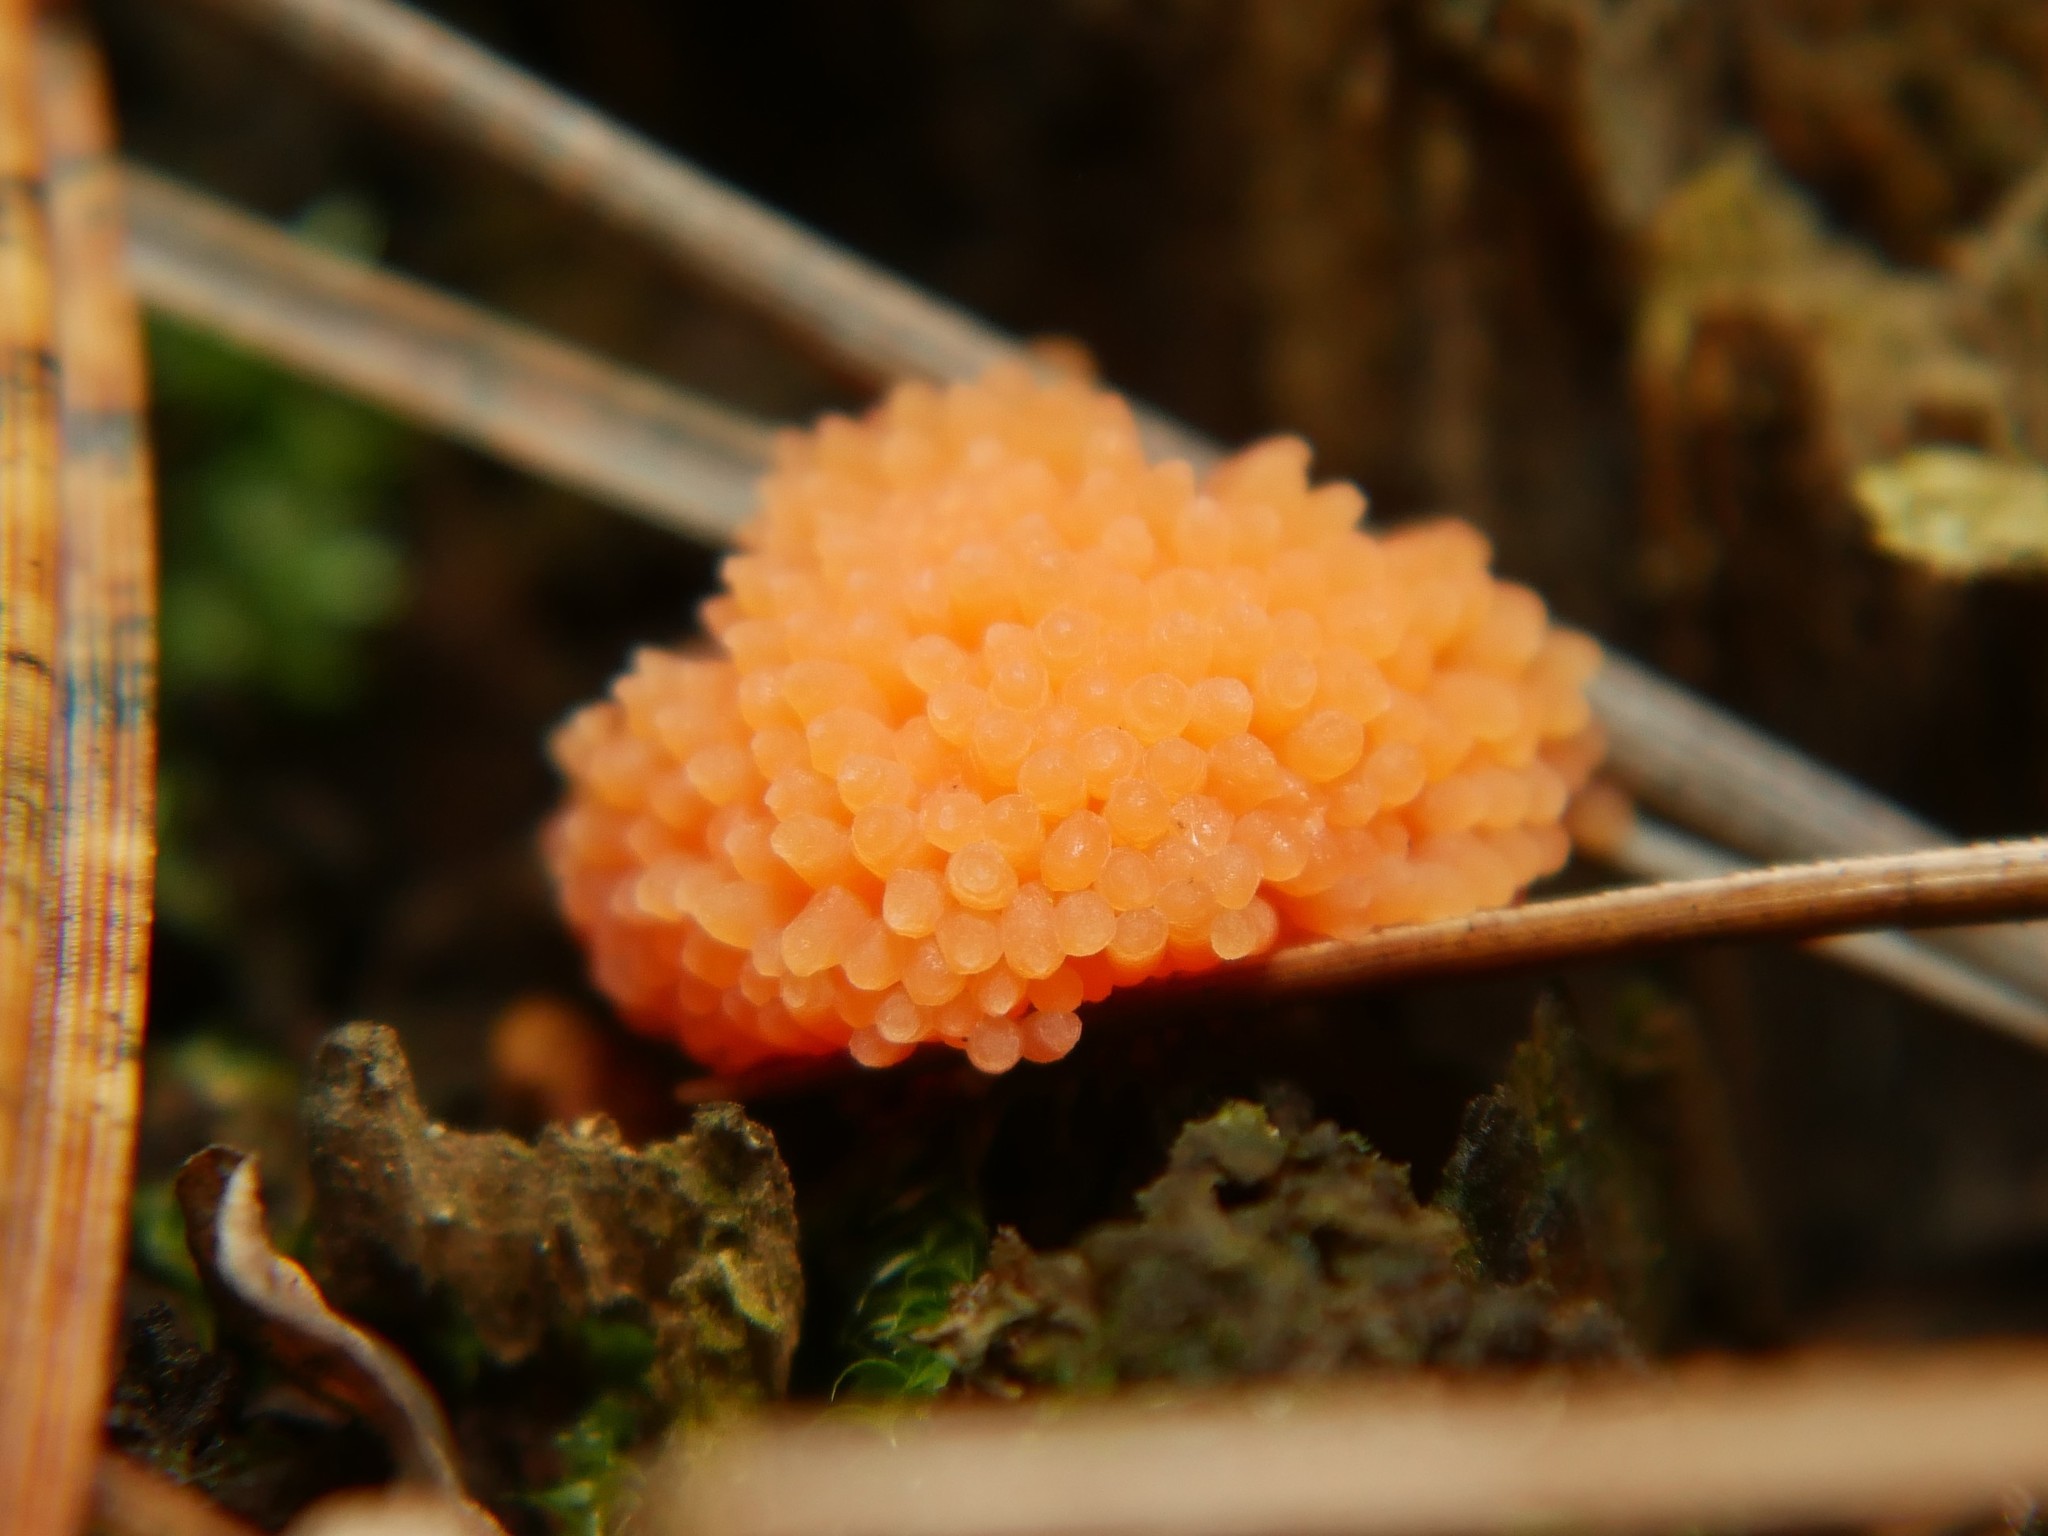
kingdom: Protozoa
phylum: Mycetozoa
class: Myxomycetes
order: Cribrariales
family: Tubiferaceae
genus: Tubifera
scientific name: Tubifera ferruginosa
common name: Red raspberry slime mold
